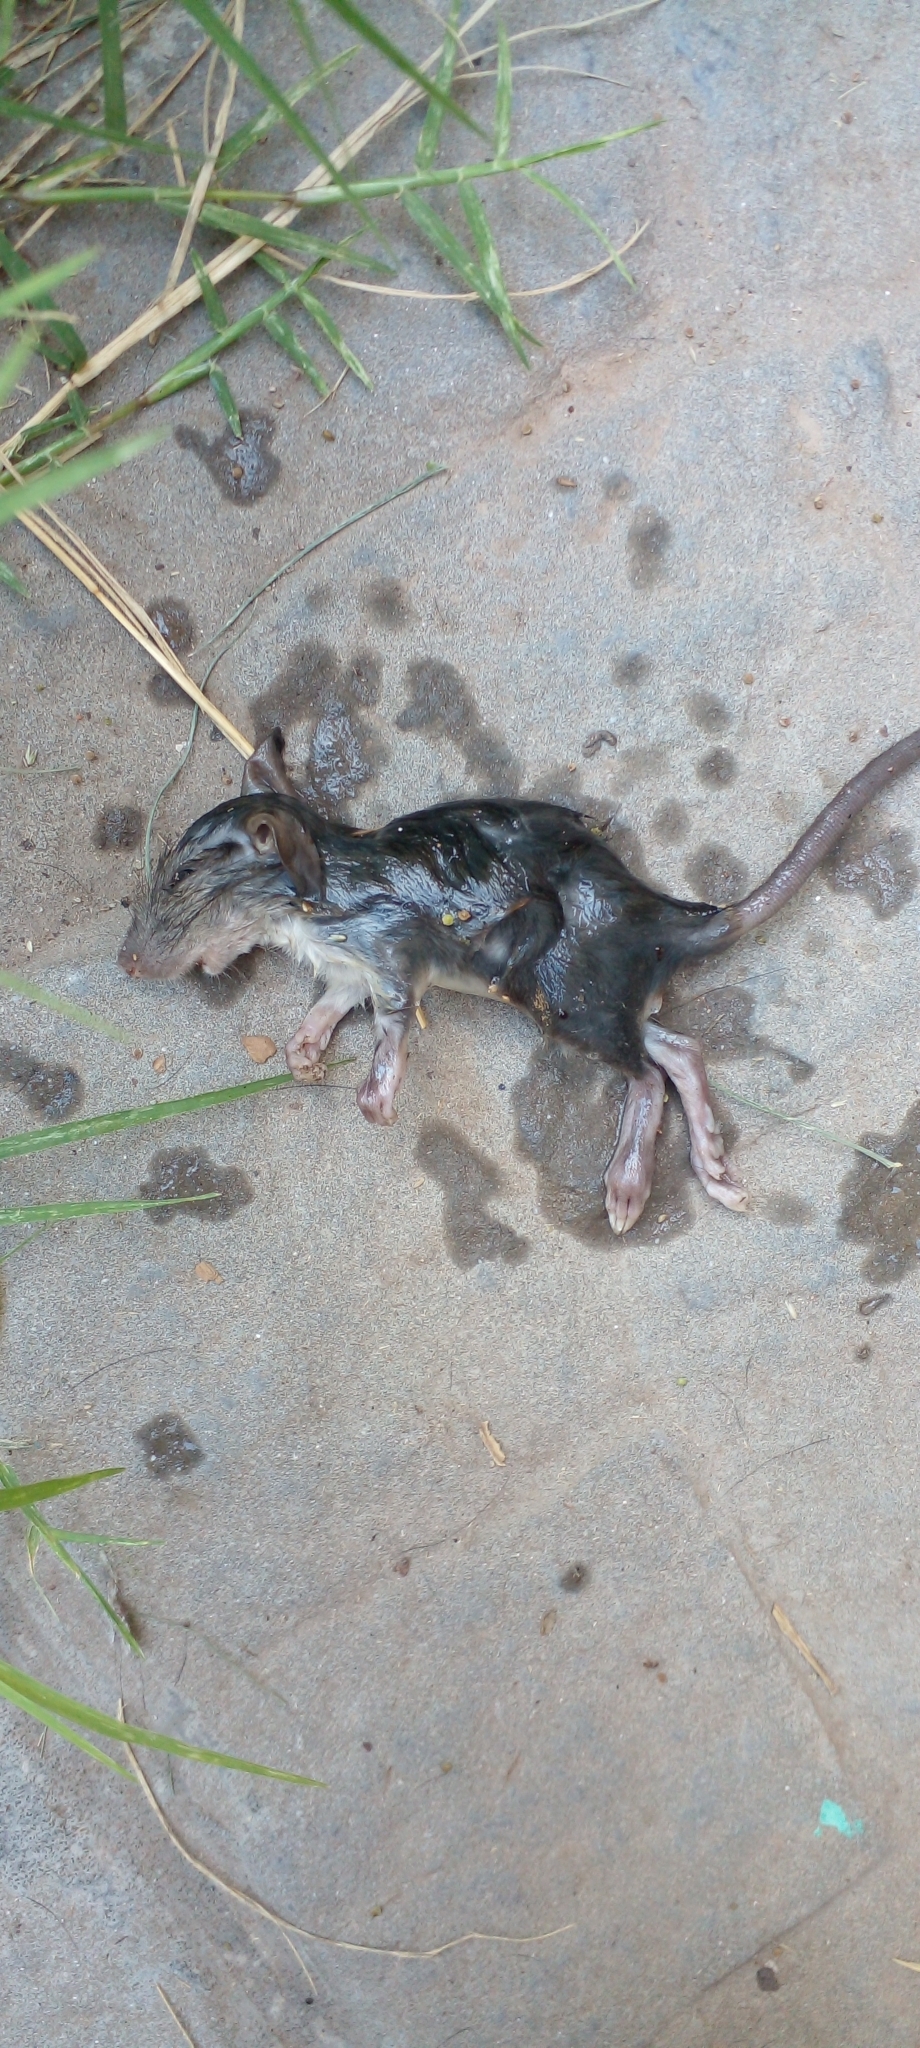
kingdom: Animalia
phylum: Chordata
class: Mammalia
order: Rodentia
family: Muridae
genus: Rattus
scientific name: Rattus rattus
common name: Black rat
